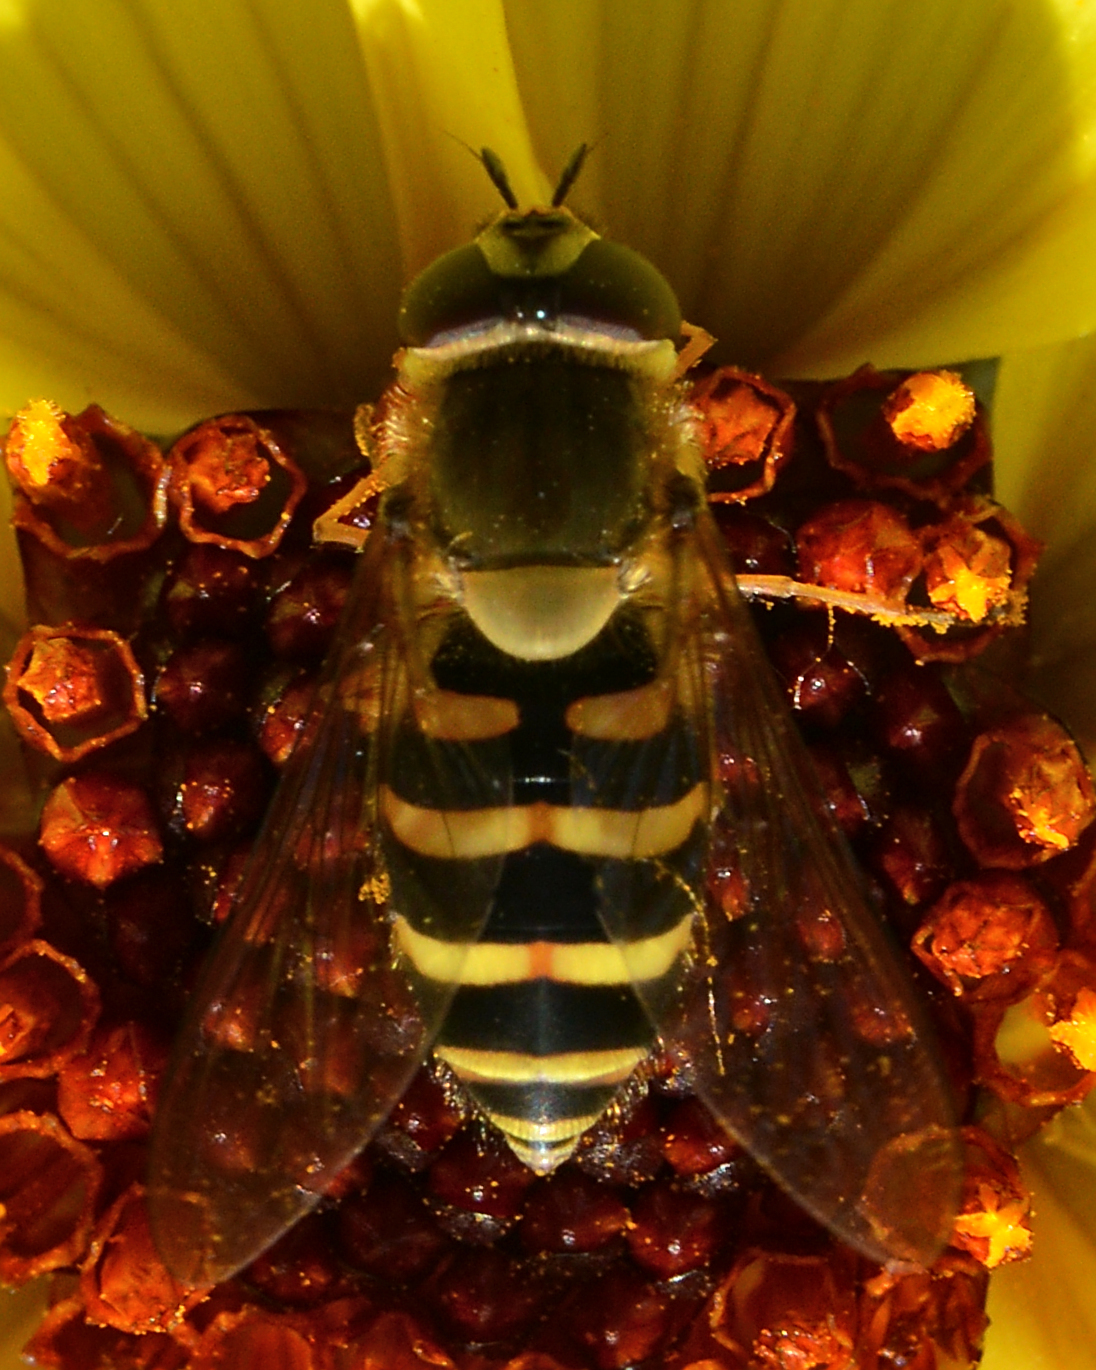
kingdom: Animalia
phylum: Arthropoda
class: Insecta
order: Diptera
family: Syrphidae
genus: Syrphus
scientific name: Syrphus torvus
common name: Hairy-eyed flower fly
